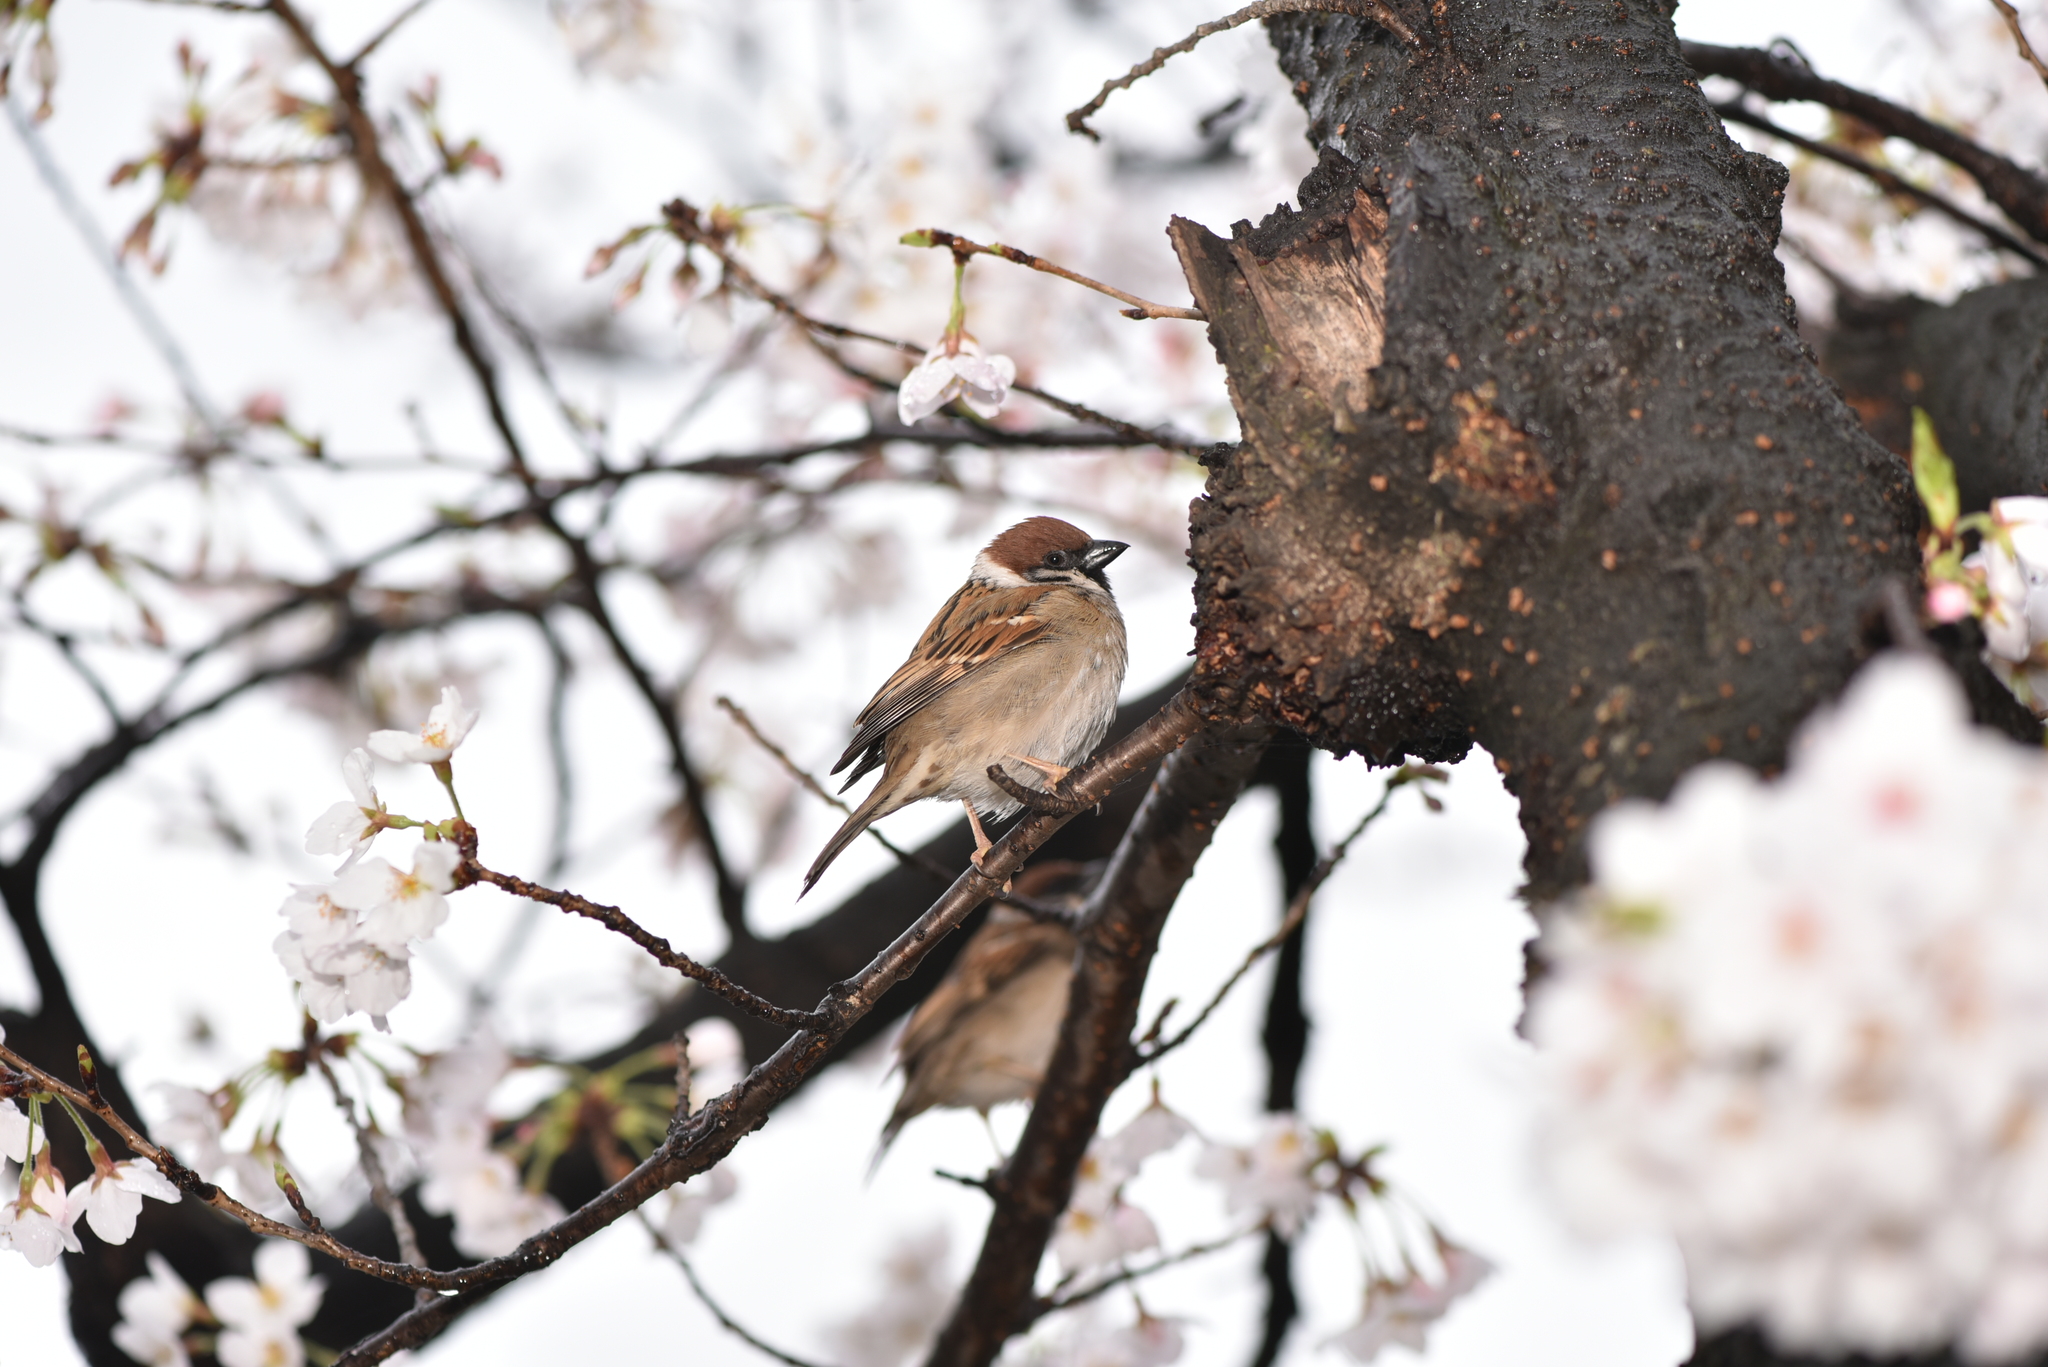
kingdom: Animalia
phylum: Chordata
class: Aves
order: Passeriformes
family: Passeridae
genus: Passer
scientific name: Passer montanus
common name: Eurasian tree sparrow
